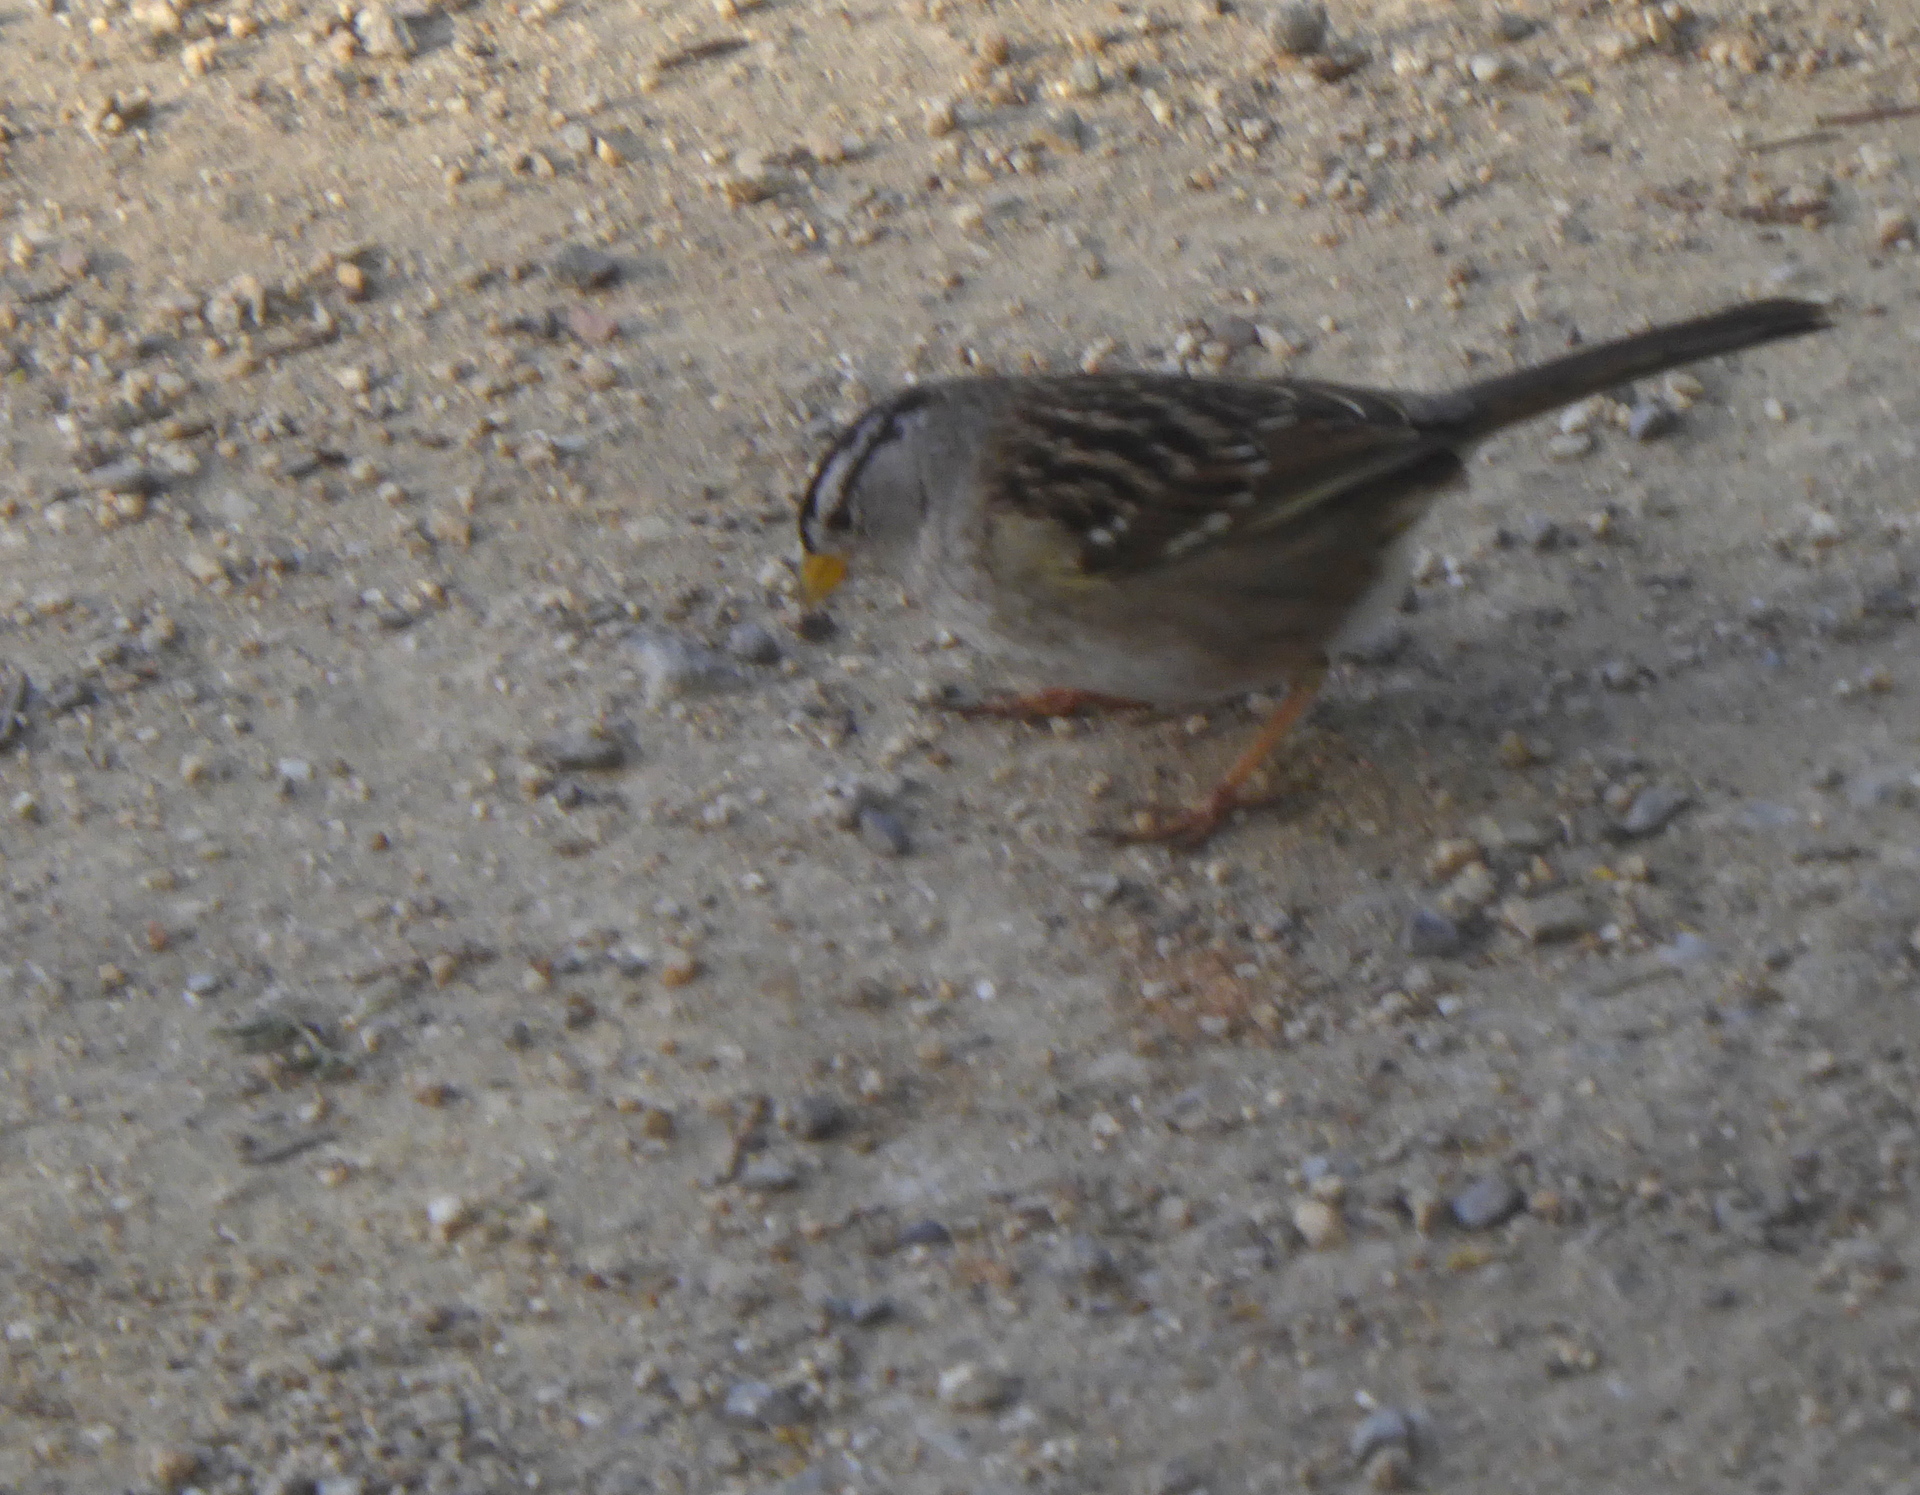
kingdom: Animalia
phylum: Chordata
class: Aves
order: Passeriformes
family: Passerellidae
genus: Zonotrichia
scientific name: Zonotrichia leucophrys
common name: White-crowned sparrow
